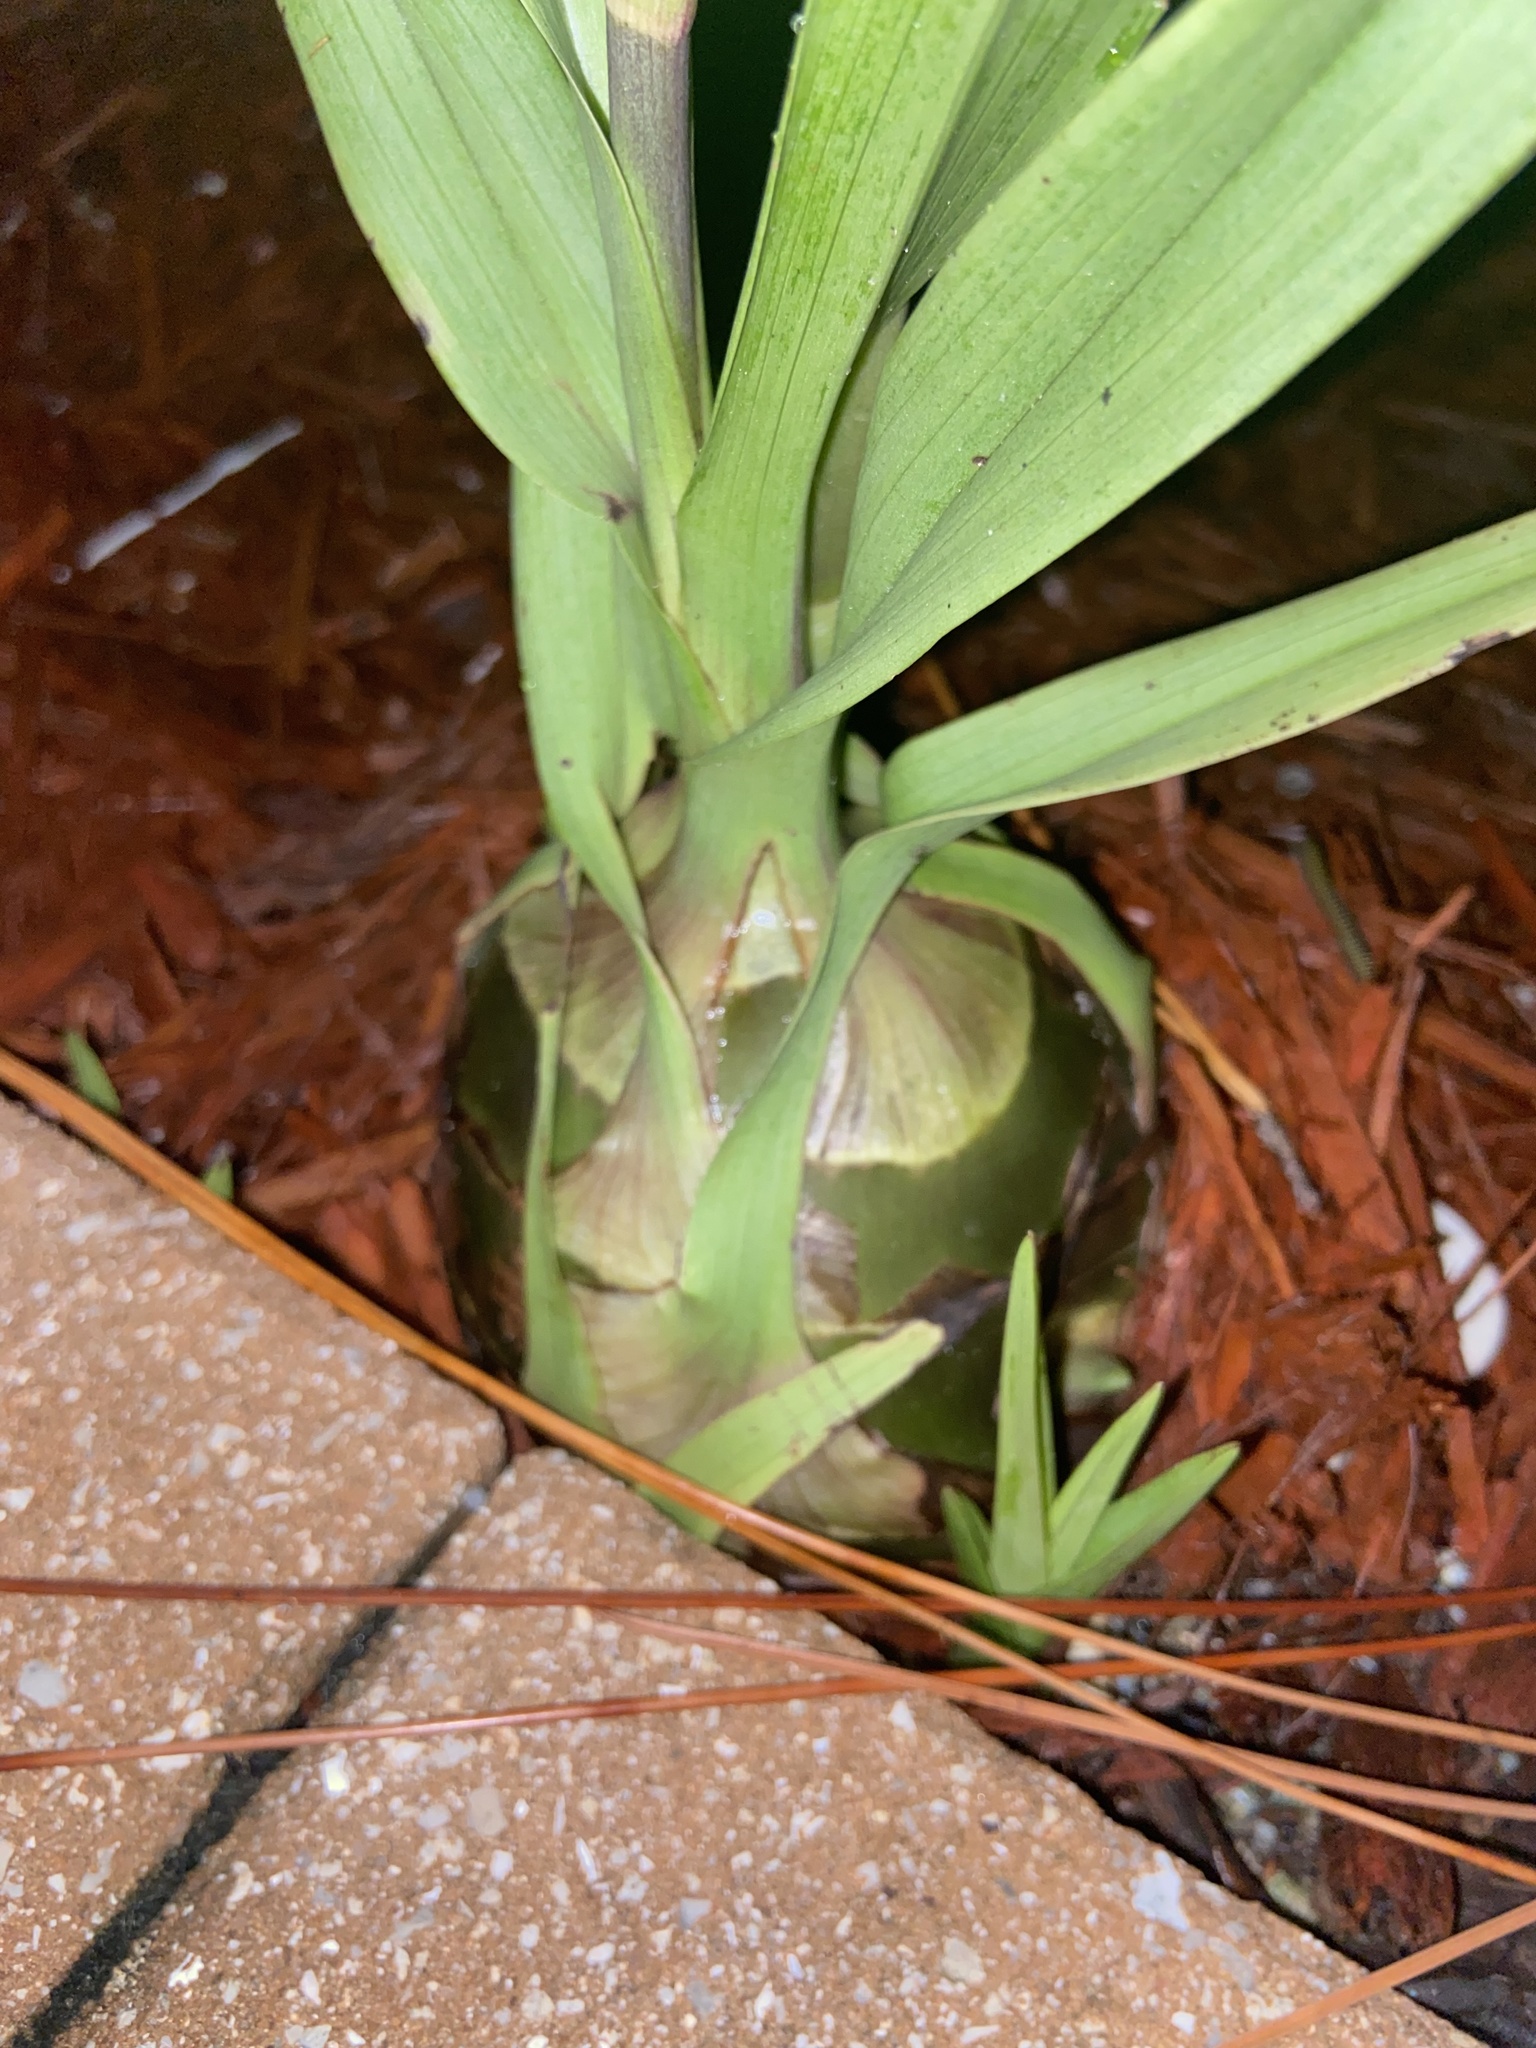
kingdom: Plantae
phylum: Tracheophyta
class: Liliopsida
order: Asparagales
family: Orchidaceae
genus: Eulophia
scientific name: Eulophia graminea
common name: Orchid
